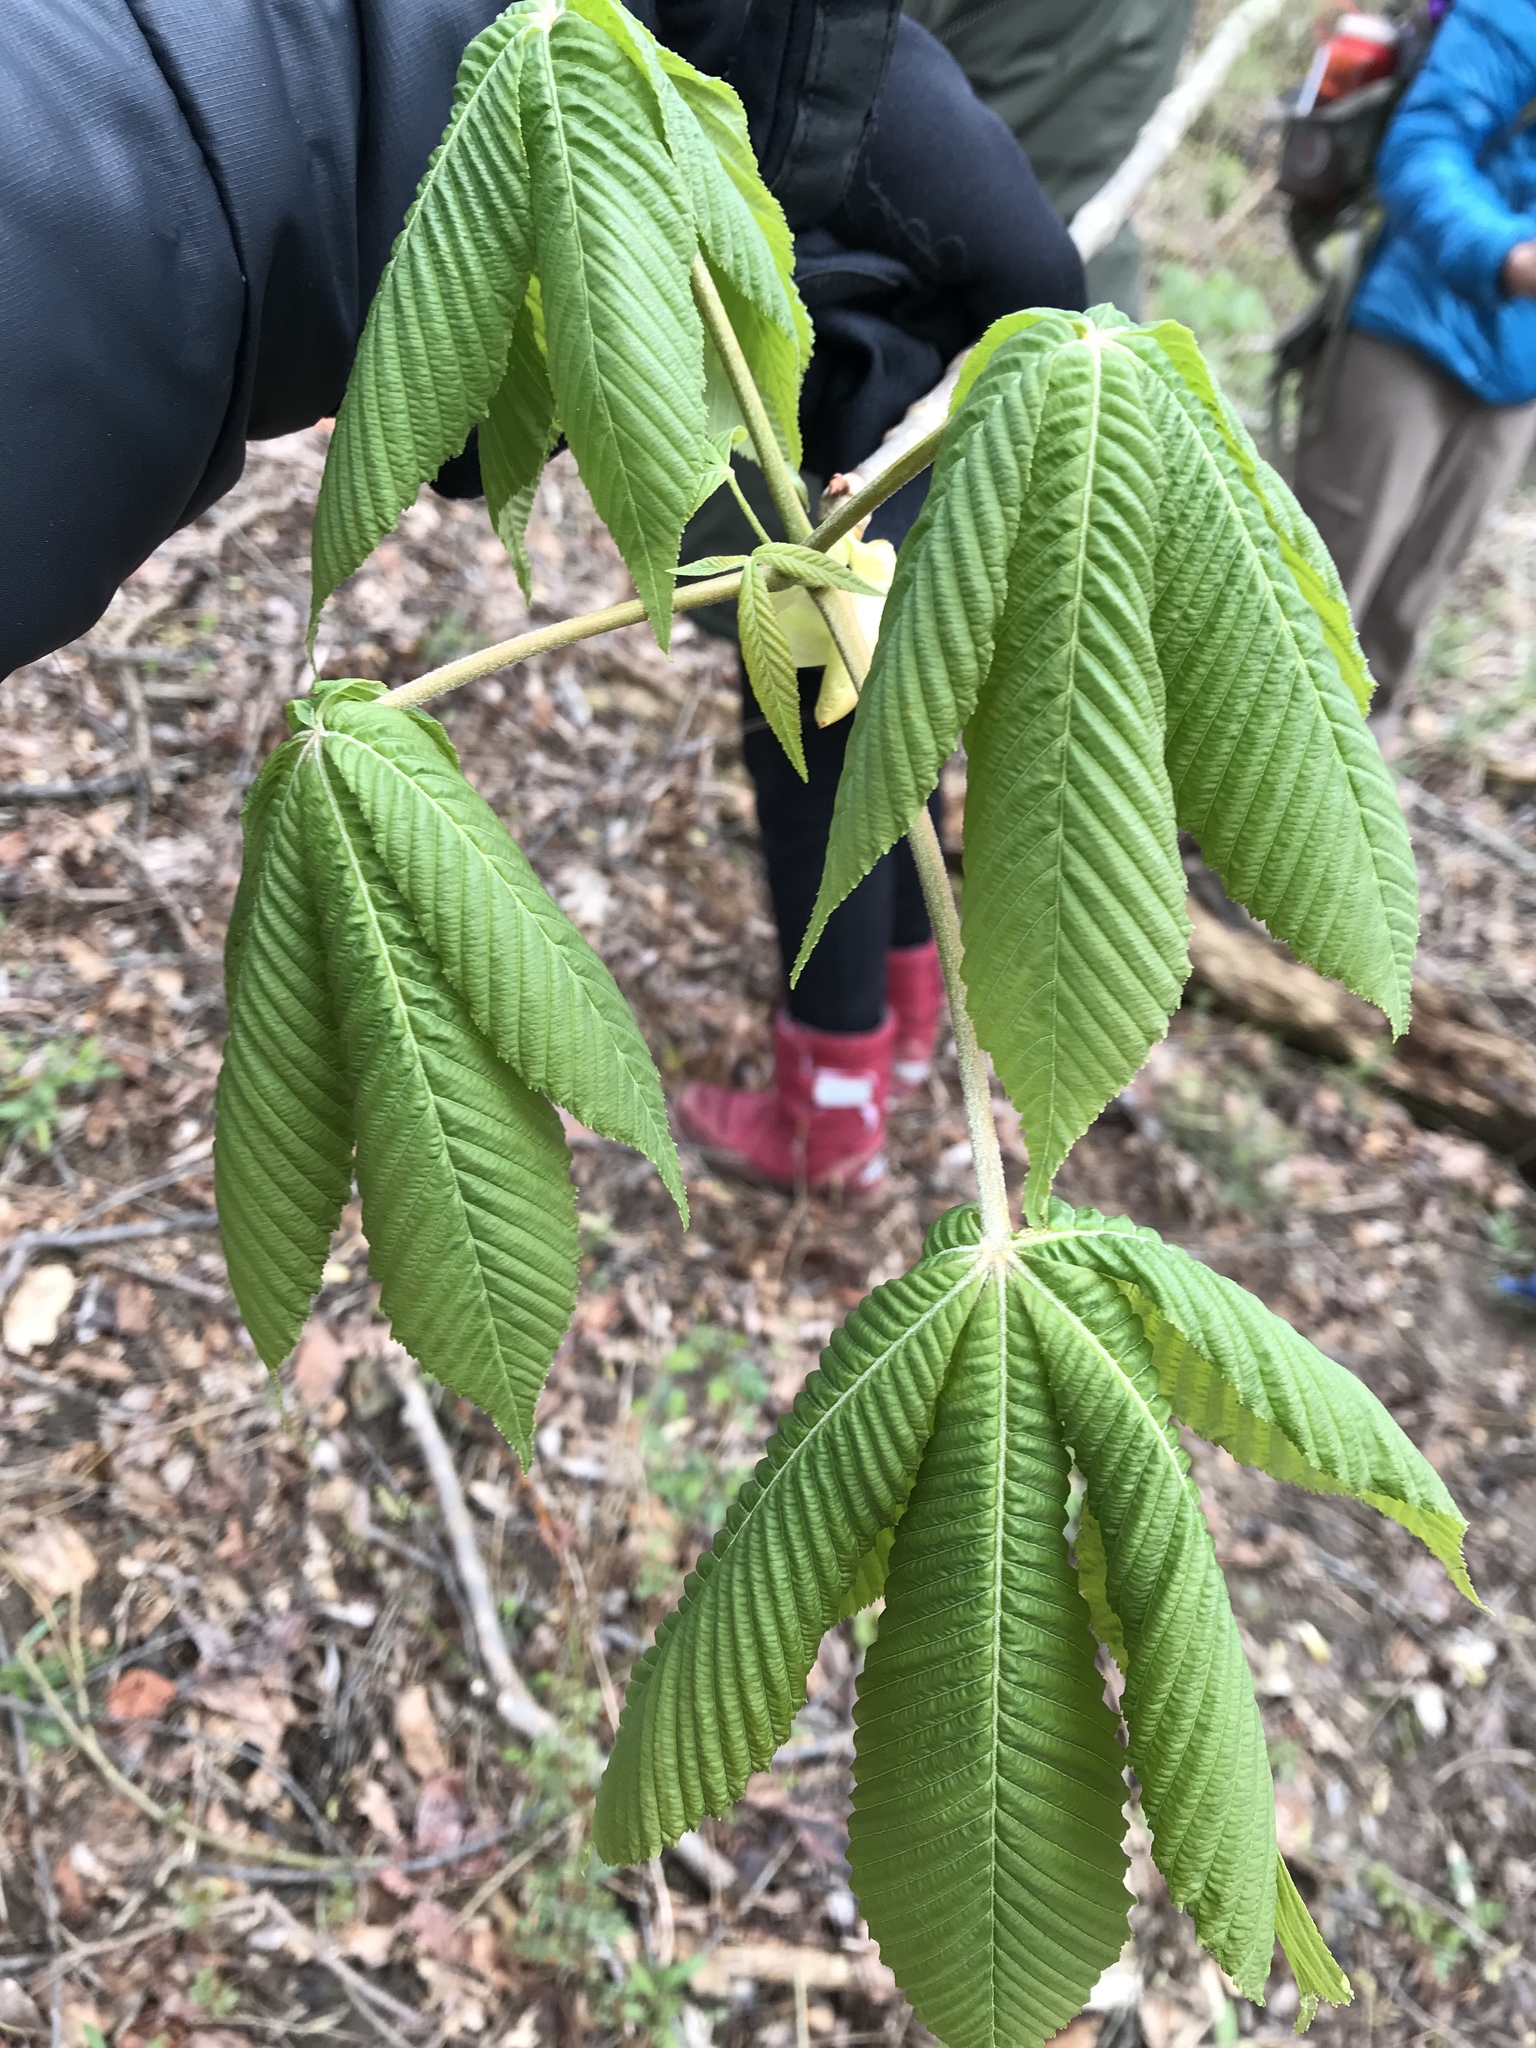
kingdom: Plantae
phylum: Tracheophyta
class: Magnoliopsida
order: Sapindales
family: Sapindaceae
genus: Aesculus
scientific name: Aesculus glabra
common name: Ohio buckeye
